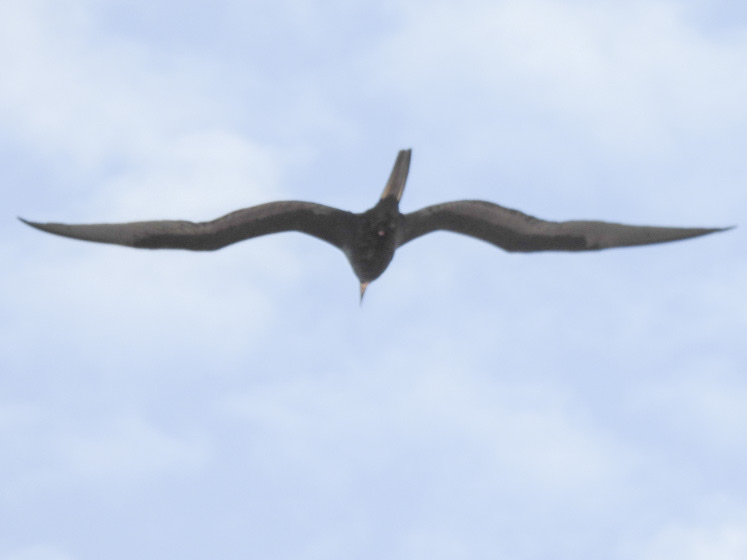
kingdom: Animalia
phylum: Chordata
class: Aves
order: Suliformes
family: Fregatidae
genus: Fregata
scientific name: Fregata magnificens
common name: Magnificent frigatebird
